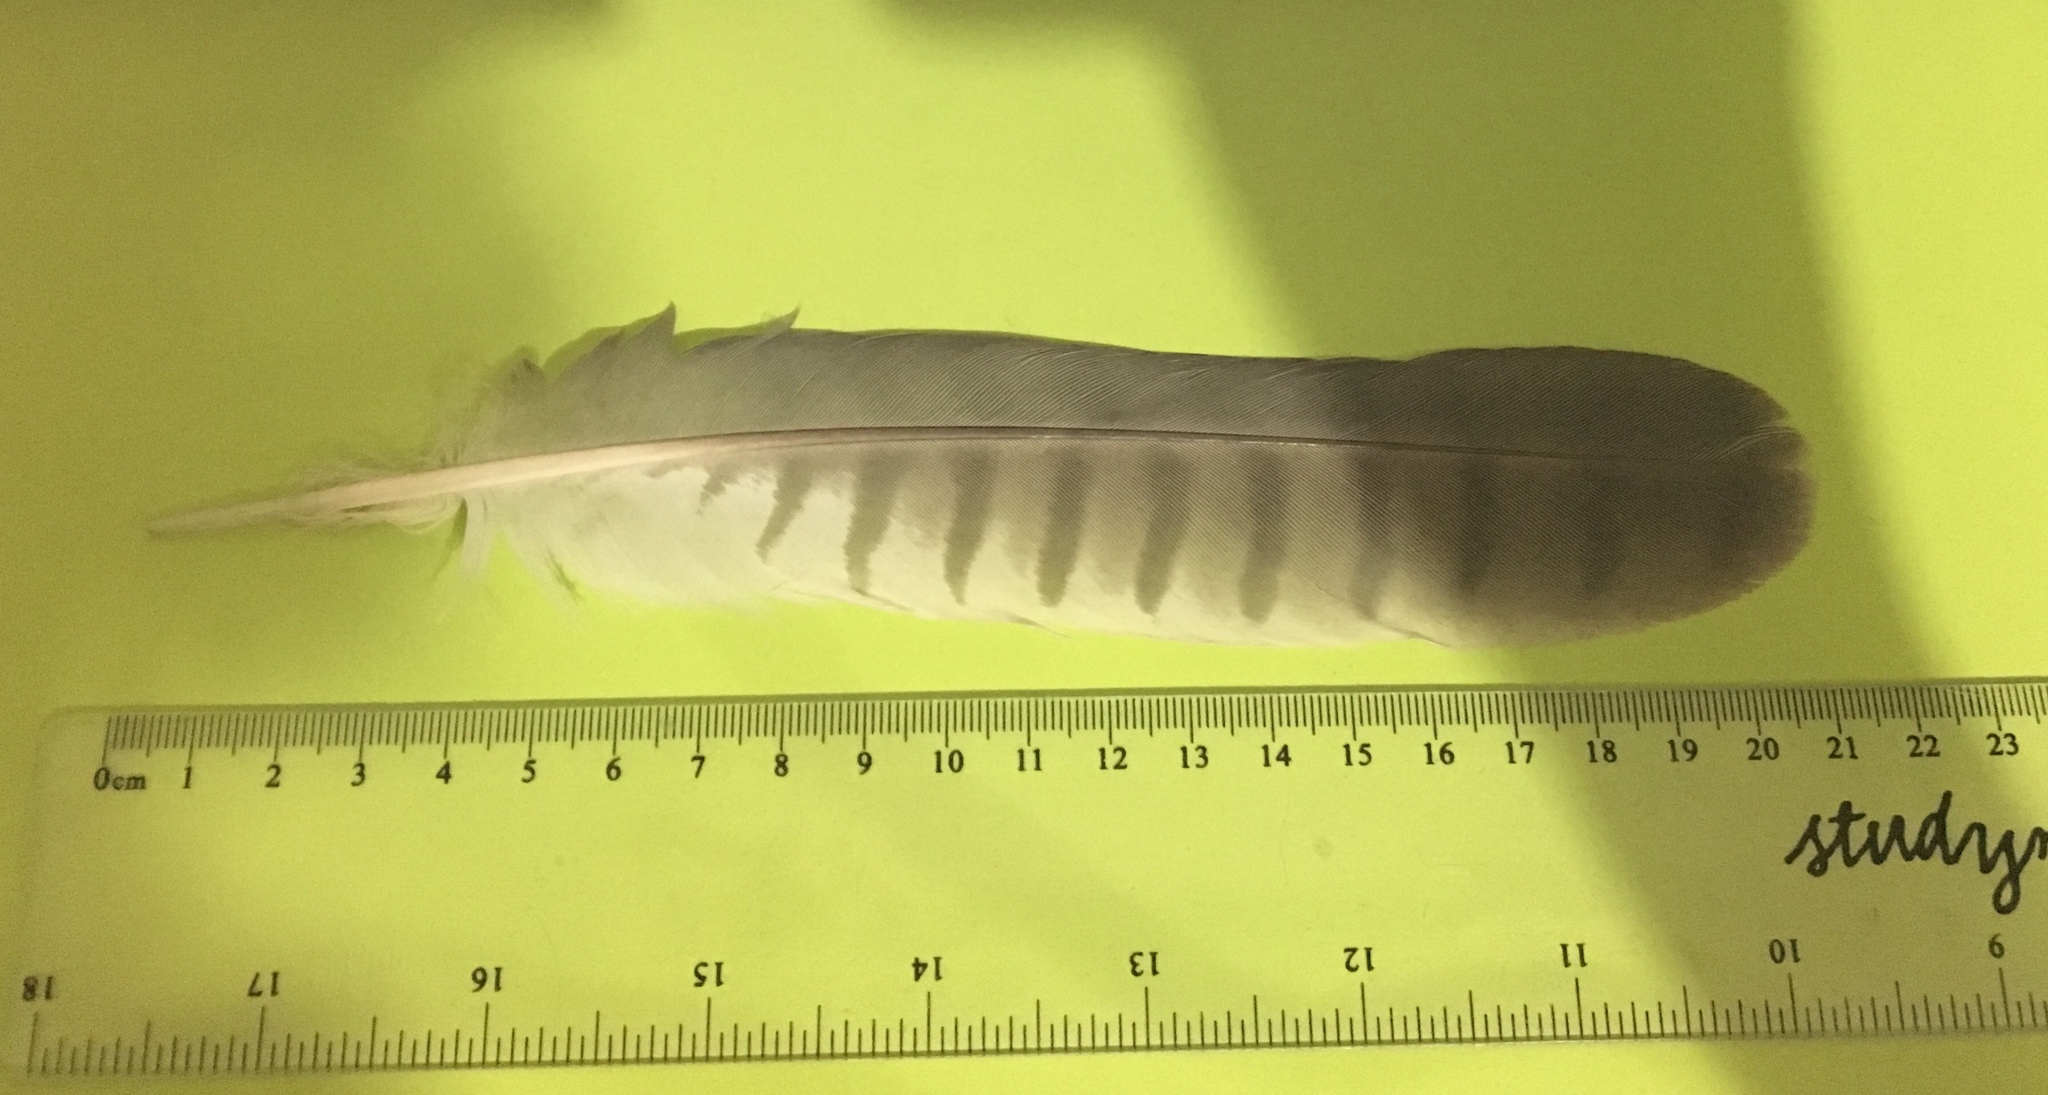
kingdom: Animalia
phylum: Chordata
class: Aves
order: Accipitriformes
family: Accipitridae
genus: Accipiter
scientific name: Accipiter novaehollandiae
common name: Grey goshawk
